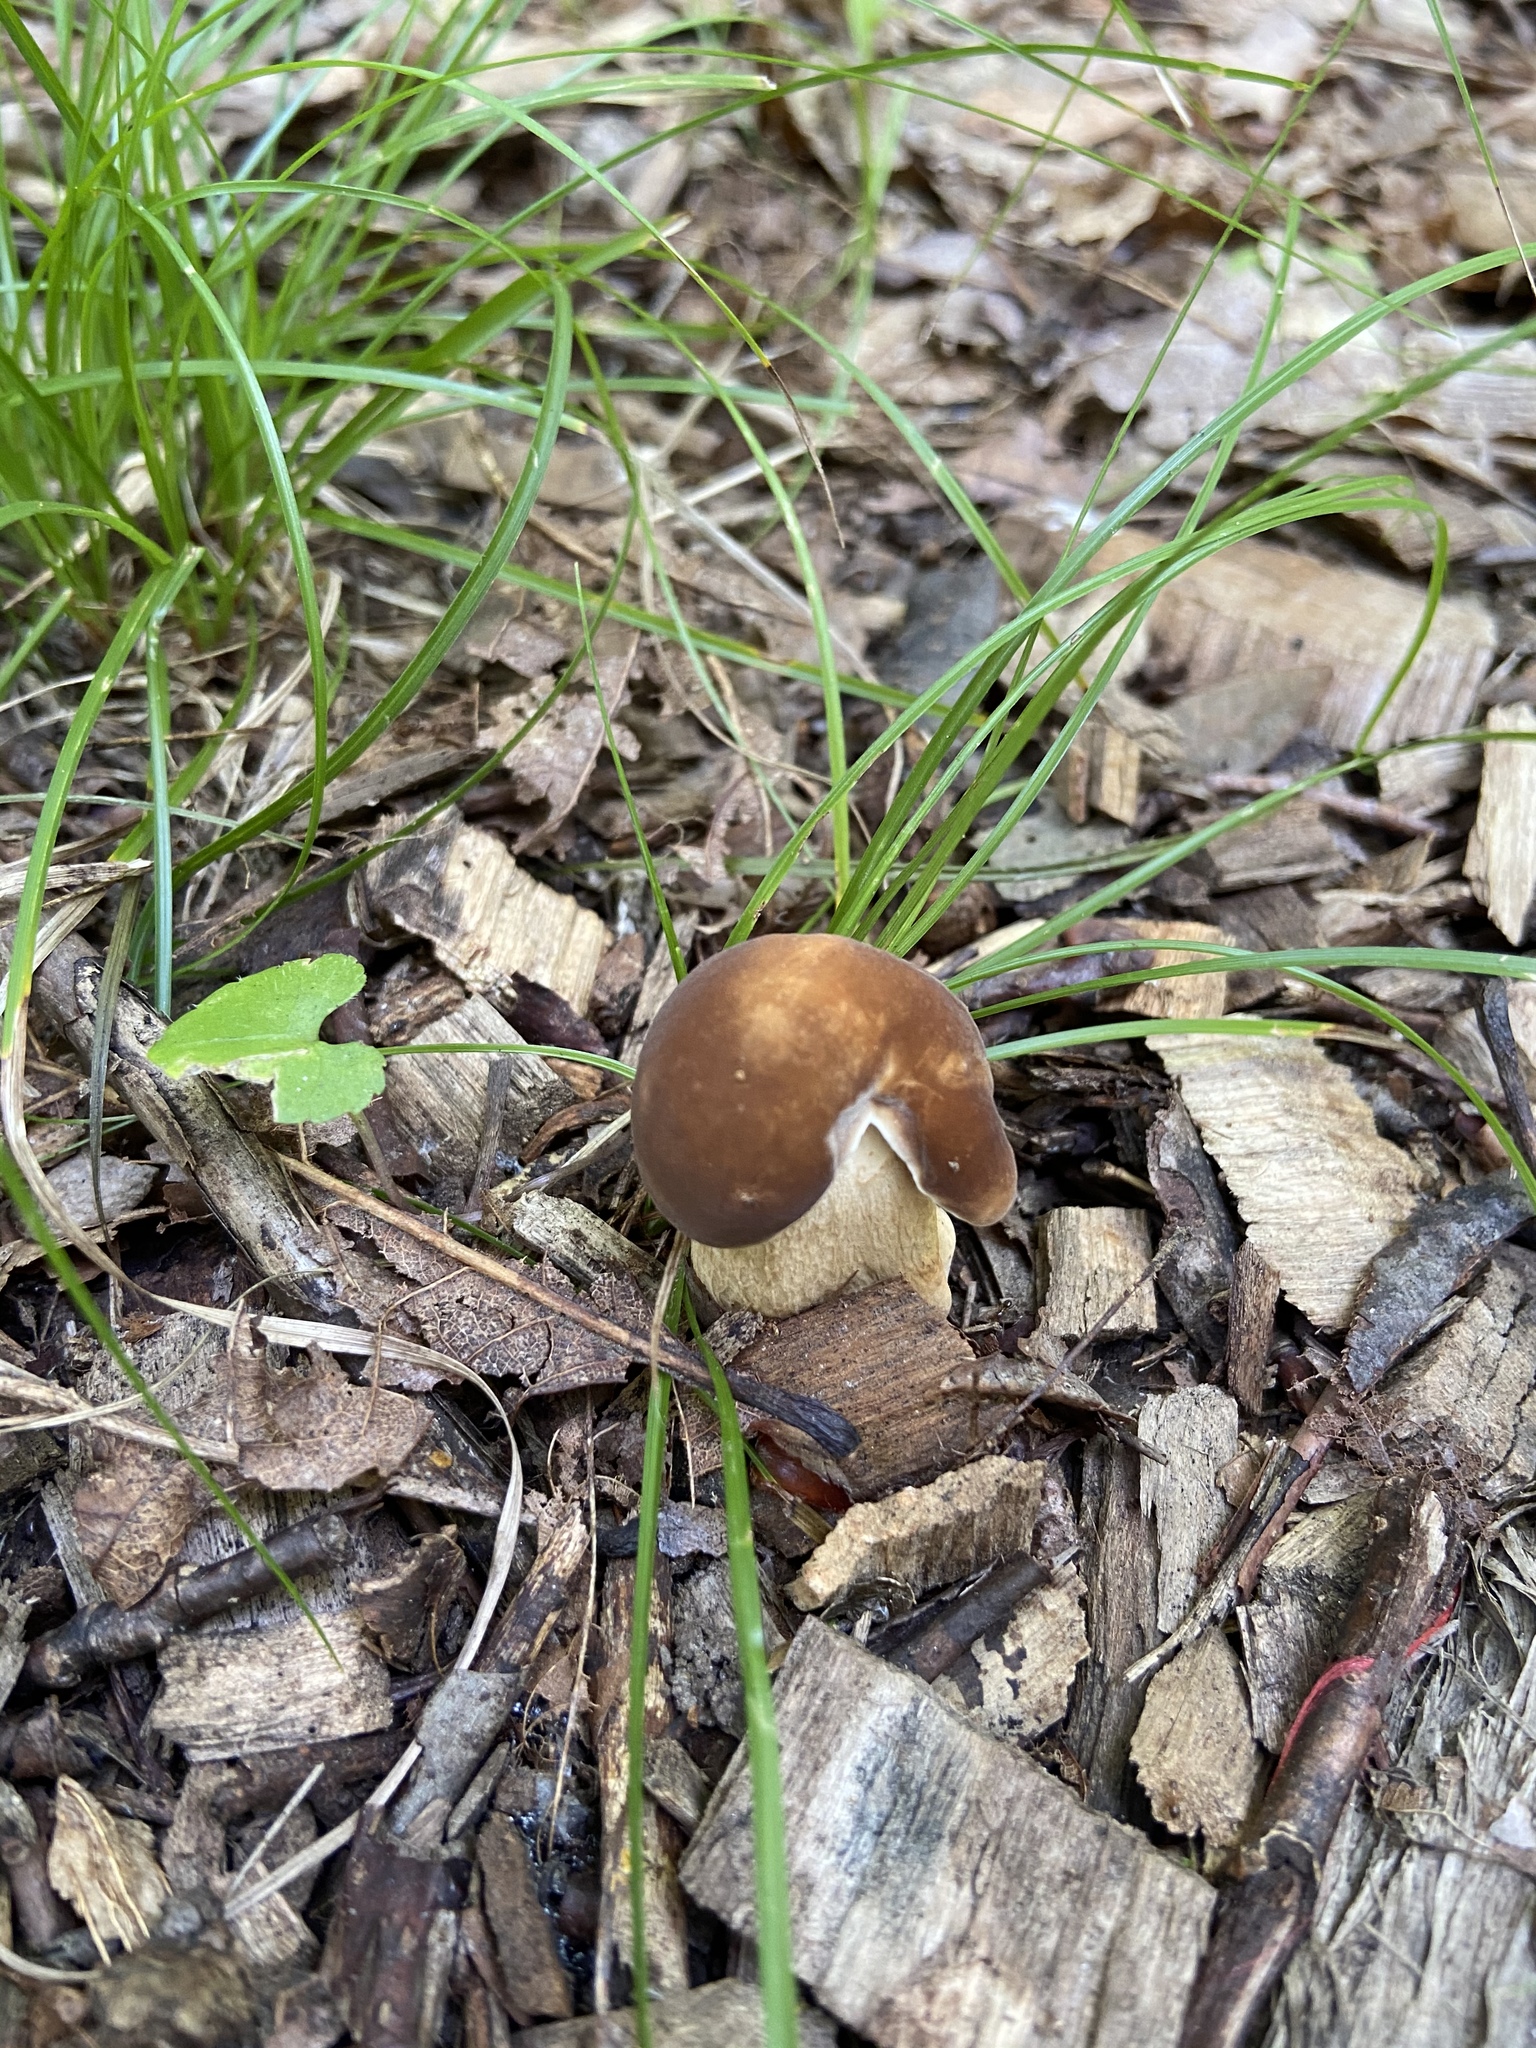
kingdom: Fungi
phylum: Basidiomycota
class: Agaricomycetes
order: Boletales
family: Boletaceae
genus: Boletus
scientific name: Boletus variipes
